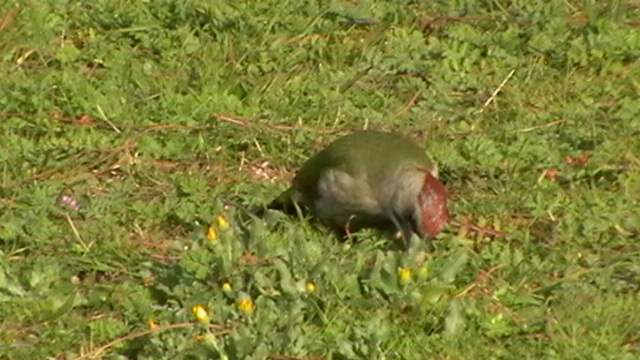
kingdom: Animalia
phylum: Chordata
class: Aves
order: Piciformes
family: Picidae
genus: Picus
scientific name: Picus sharpei
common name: Iberian green woodpecker
